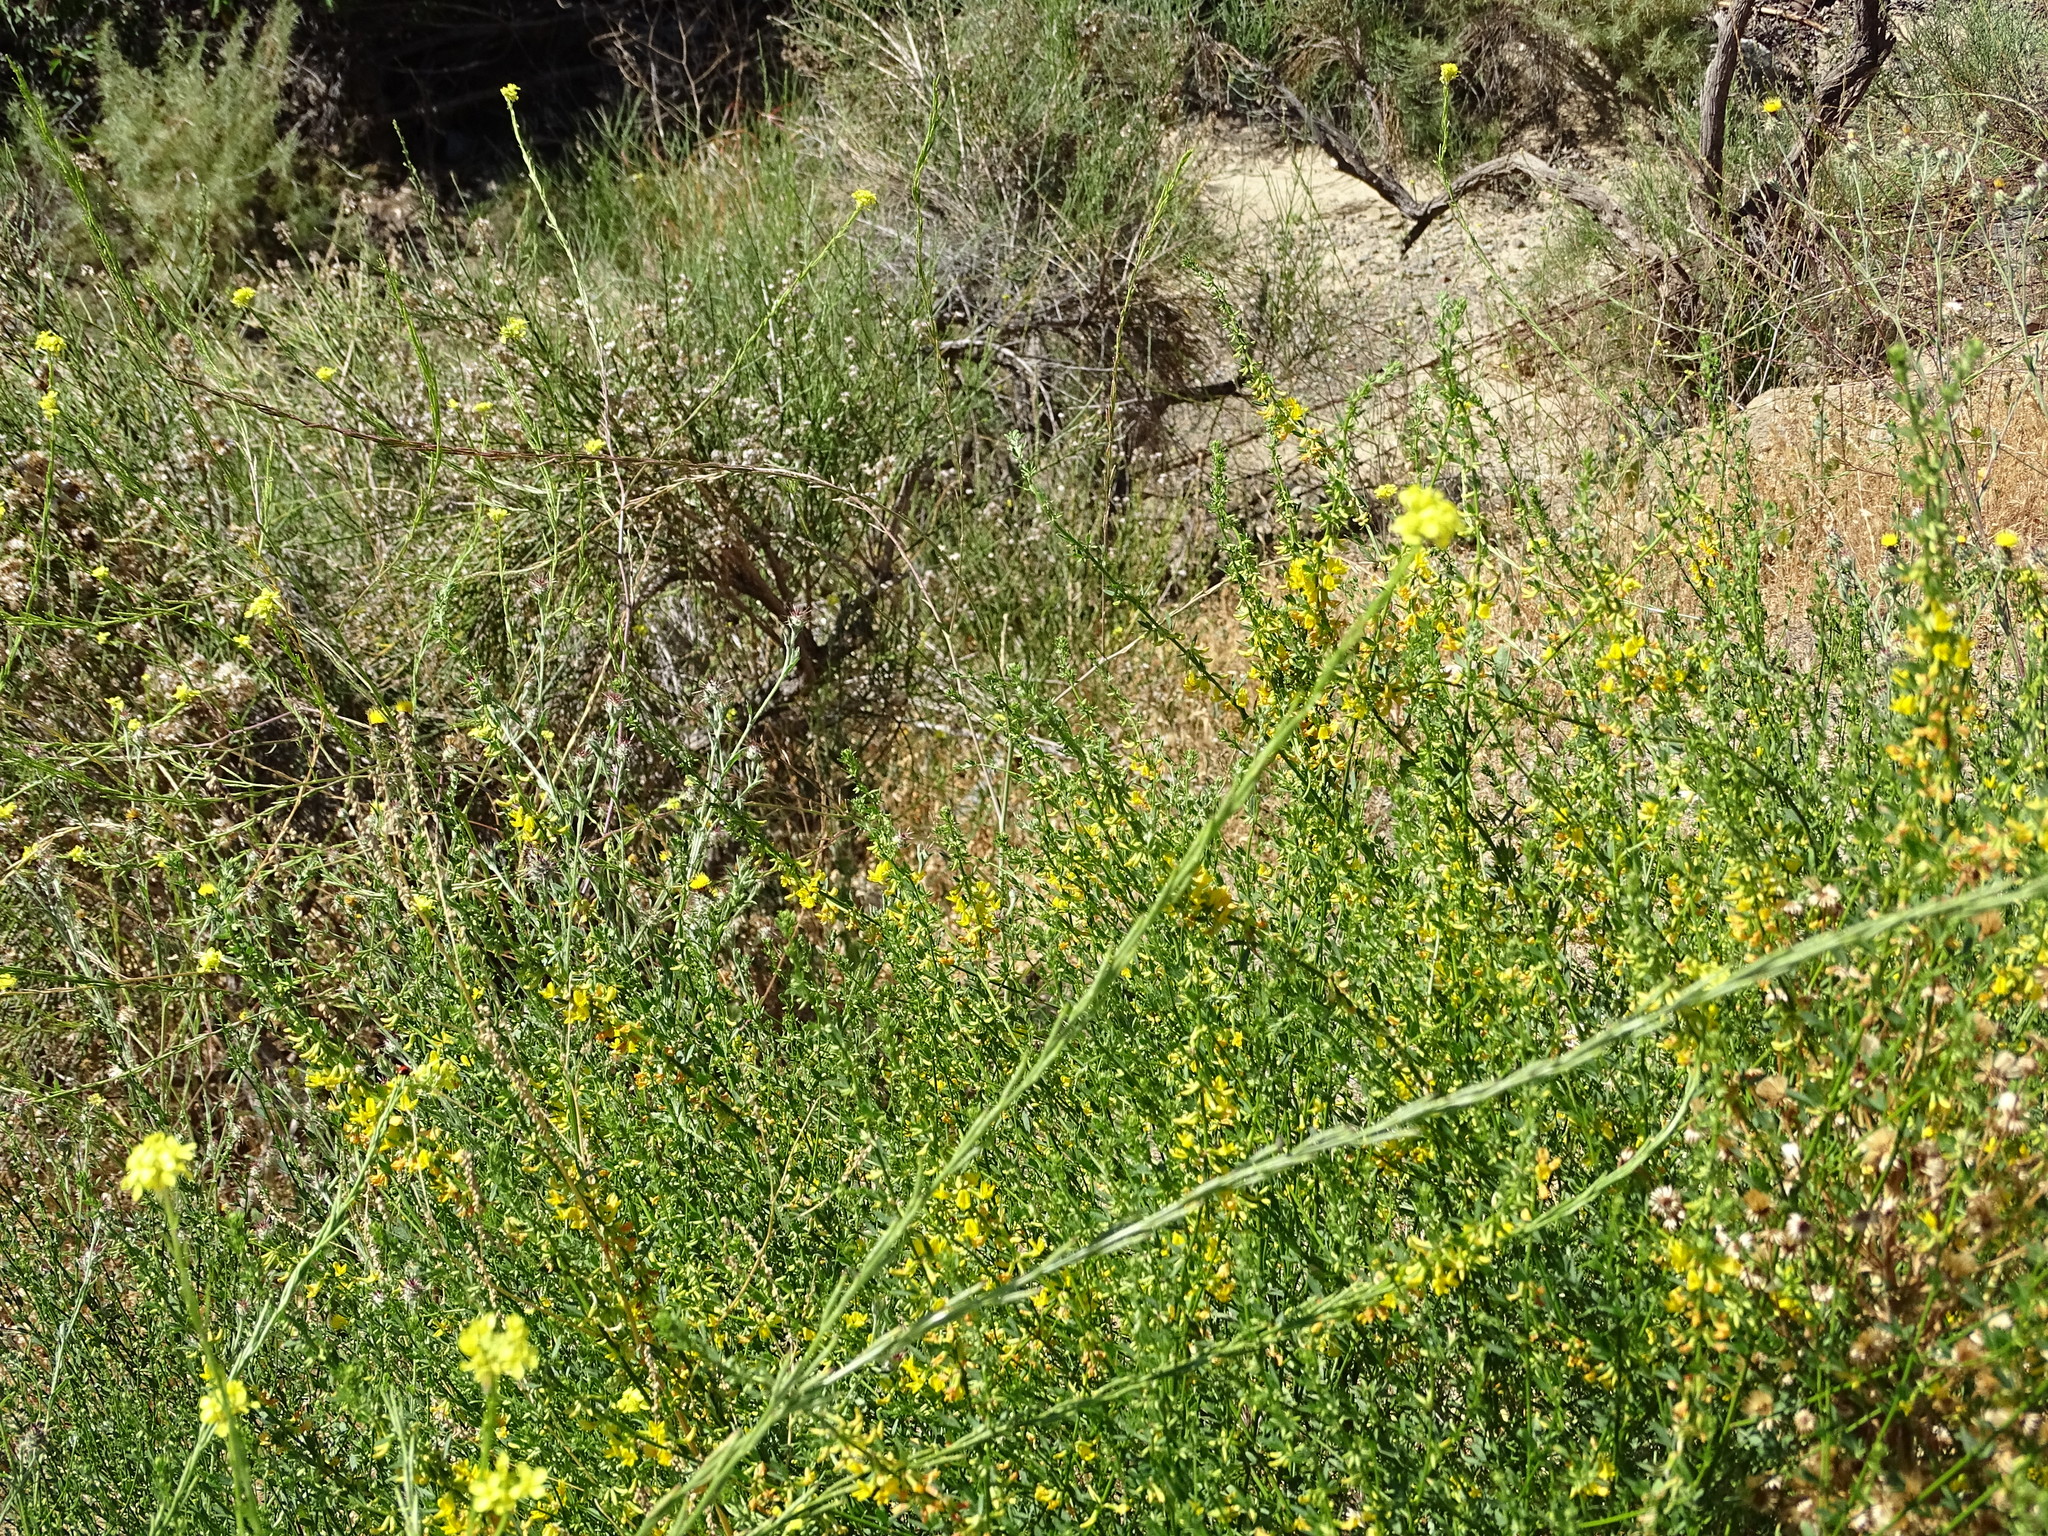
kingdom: Plantae
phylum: Tracheophyta
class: Magnoliopsida
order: Fabales
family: Fabaceae
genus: Acmispon
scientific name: Acmispon glaber
